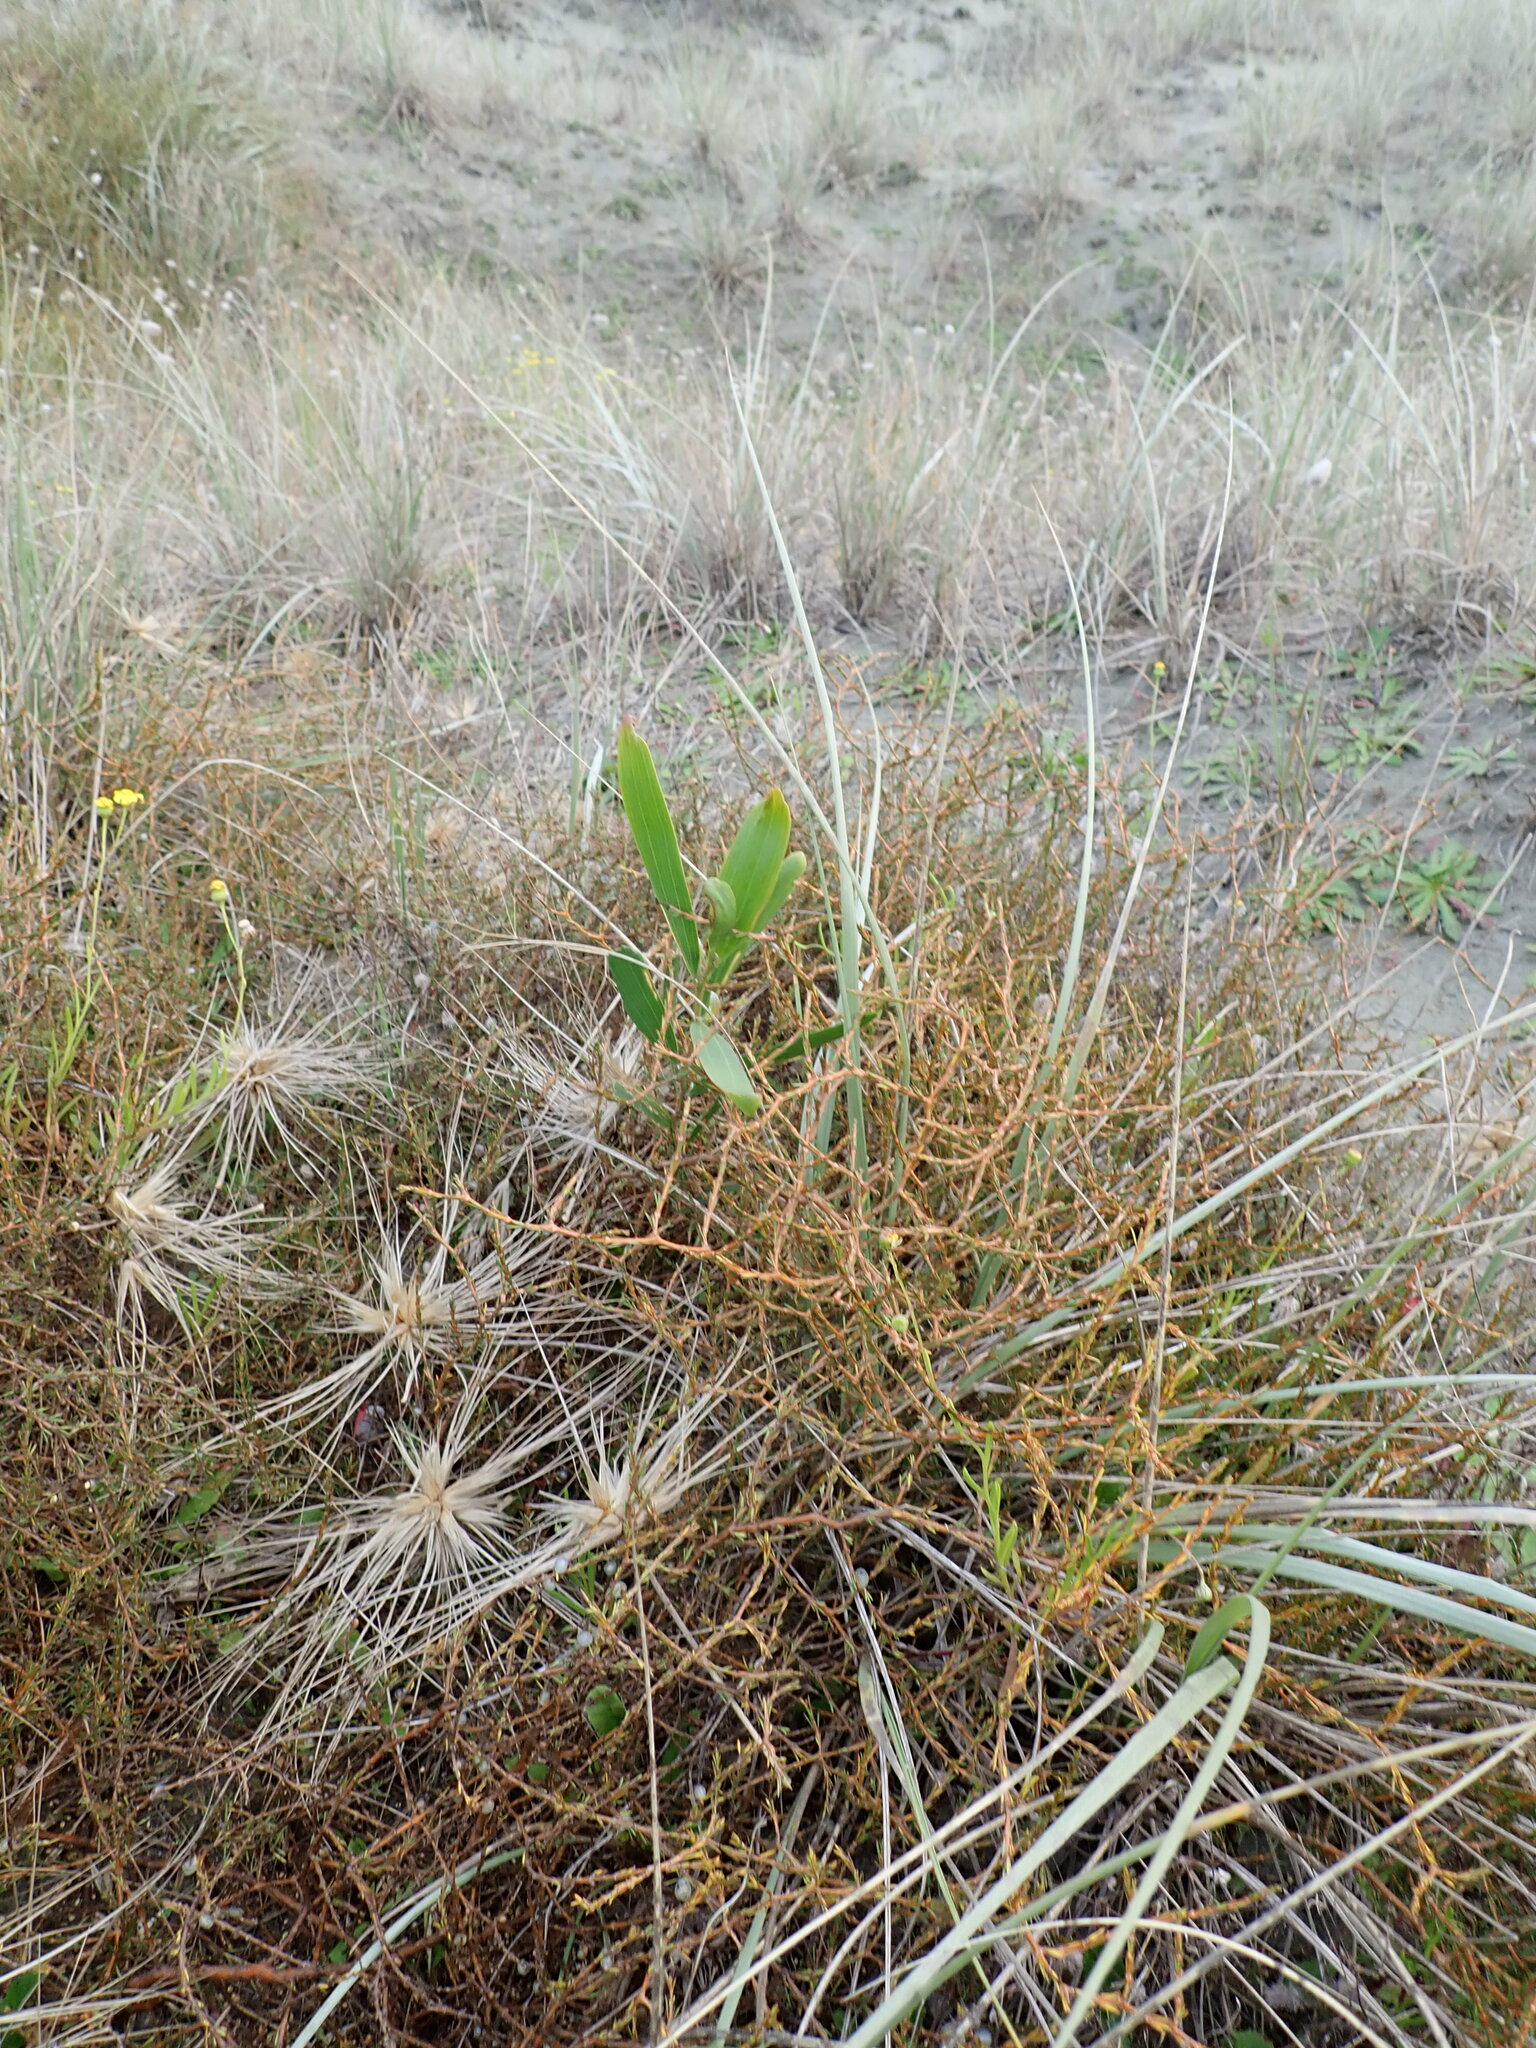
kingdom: Plantae
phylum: Tracheophyta
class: Magnoliopsida
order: Fabales
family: Fabaceae
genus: Acacia
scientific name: Acacia longifolia
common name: Sydney golden wattle
